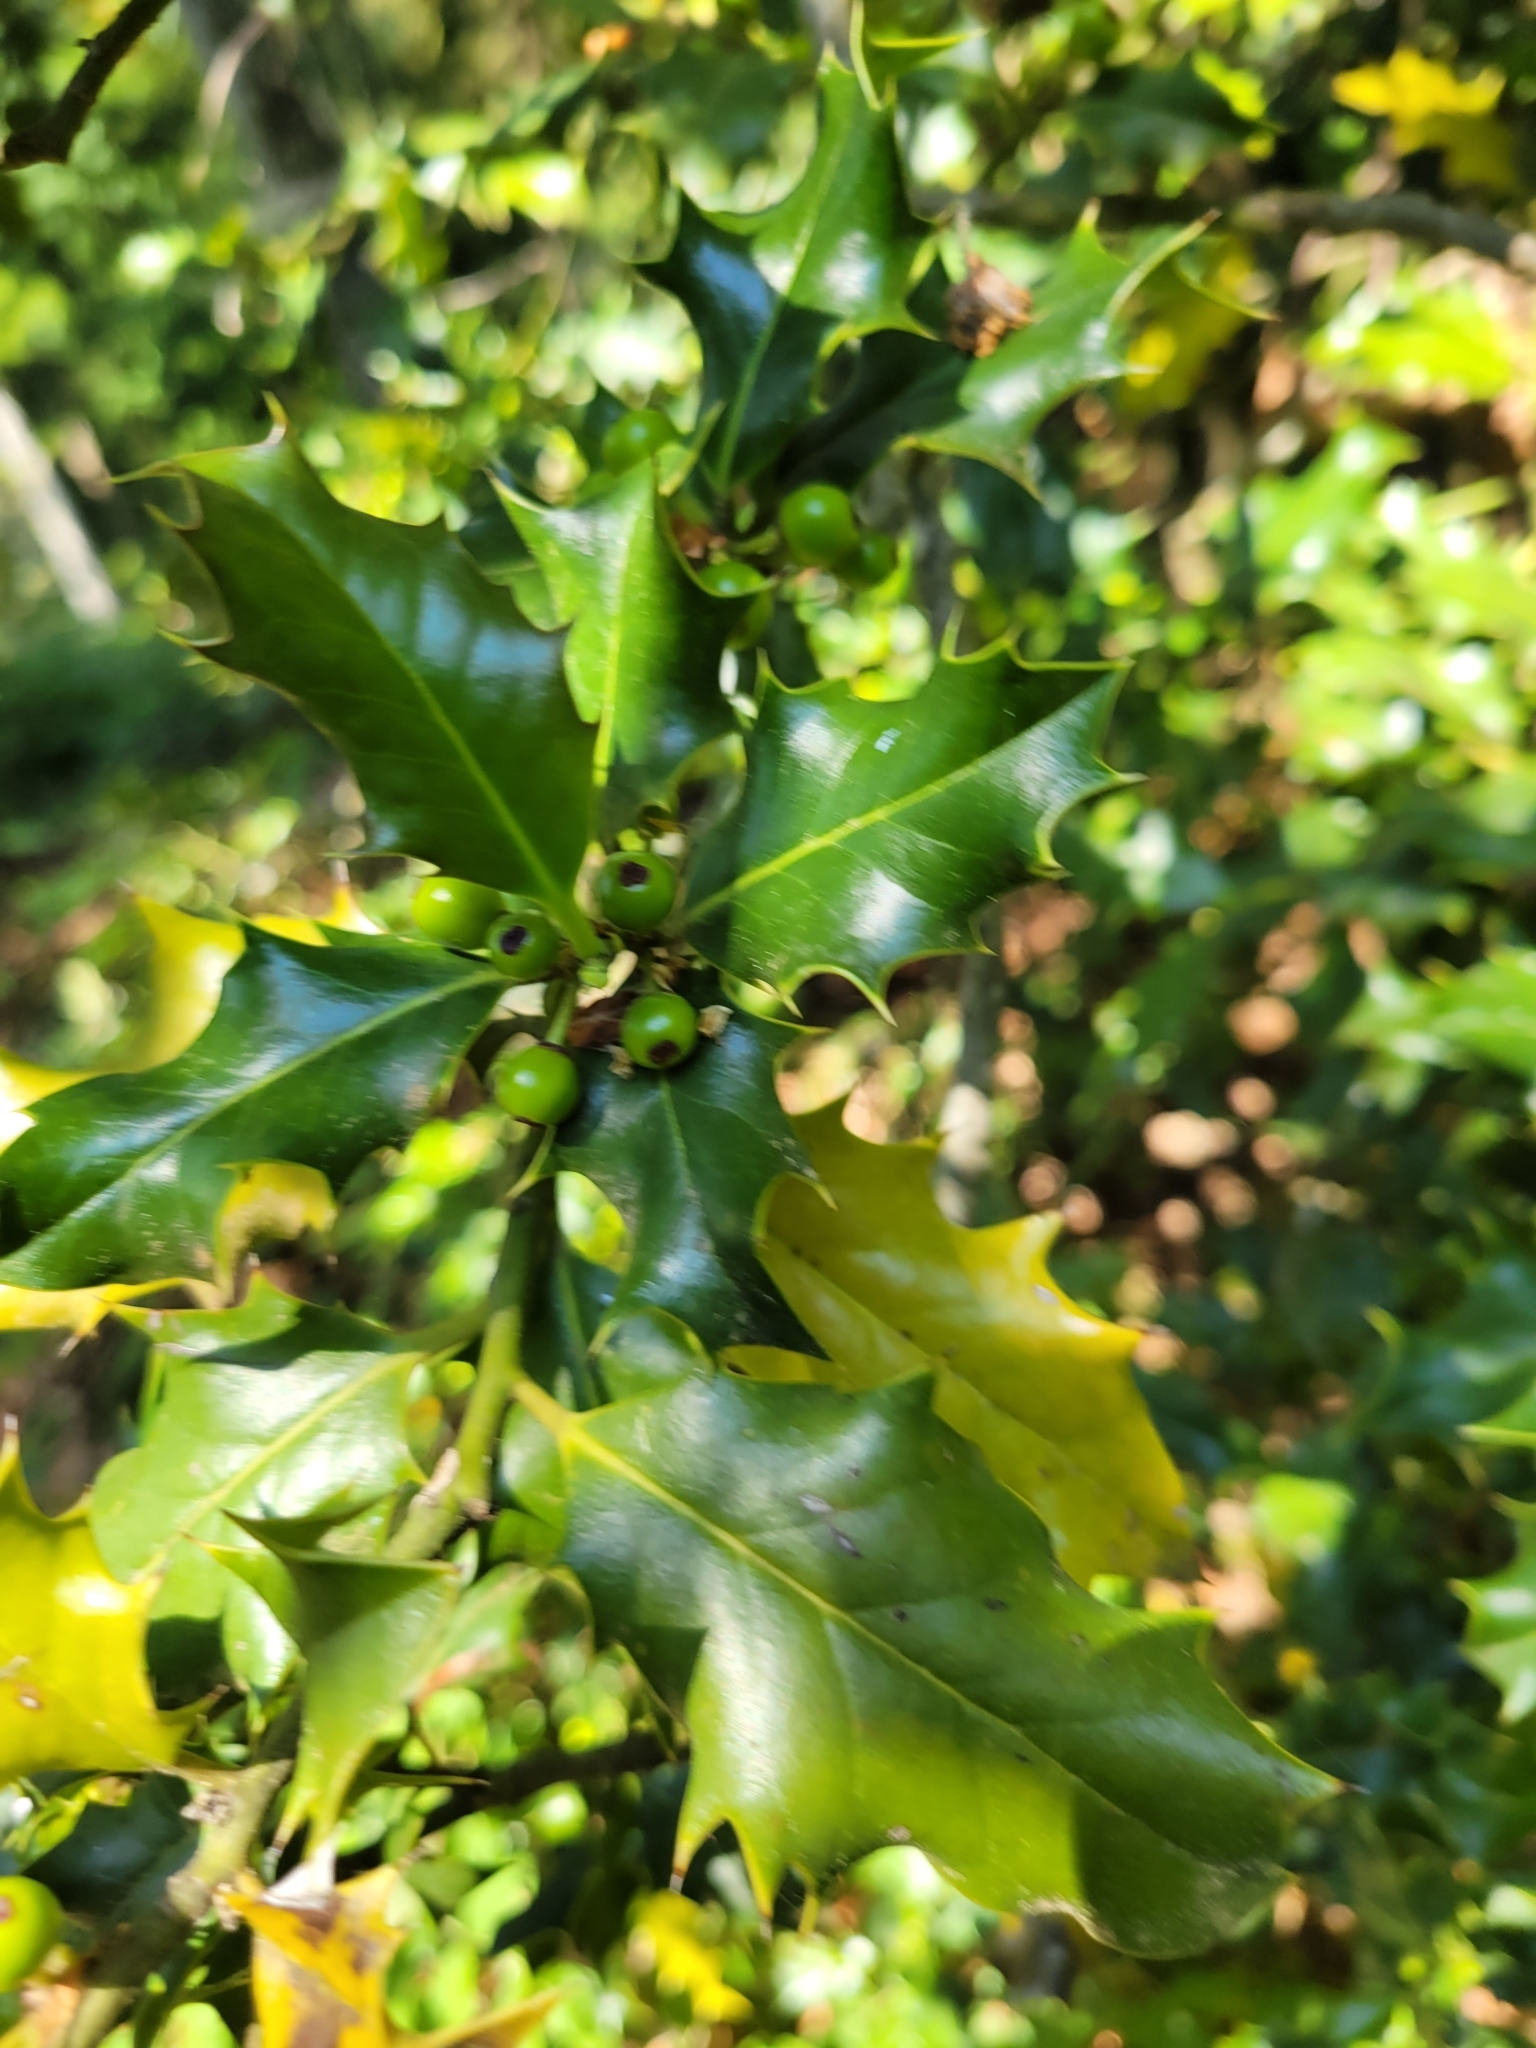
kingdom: Plantae
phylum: Tracheophyta
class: Magnoliopsida
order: Aquifoliales
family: Aquifoliaceae
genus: Ilex
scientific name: Ilex aquifolium
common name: English holly
